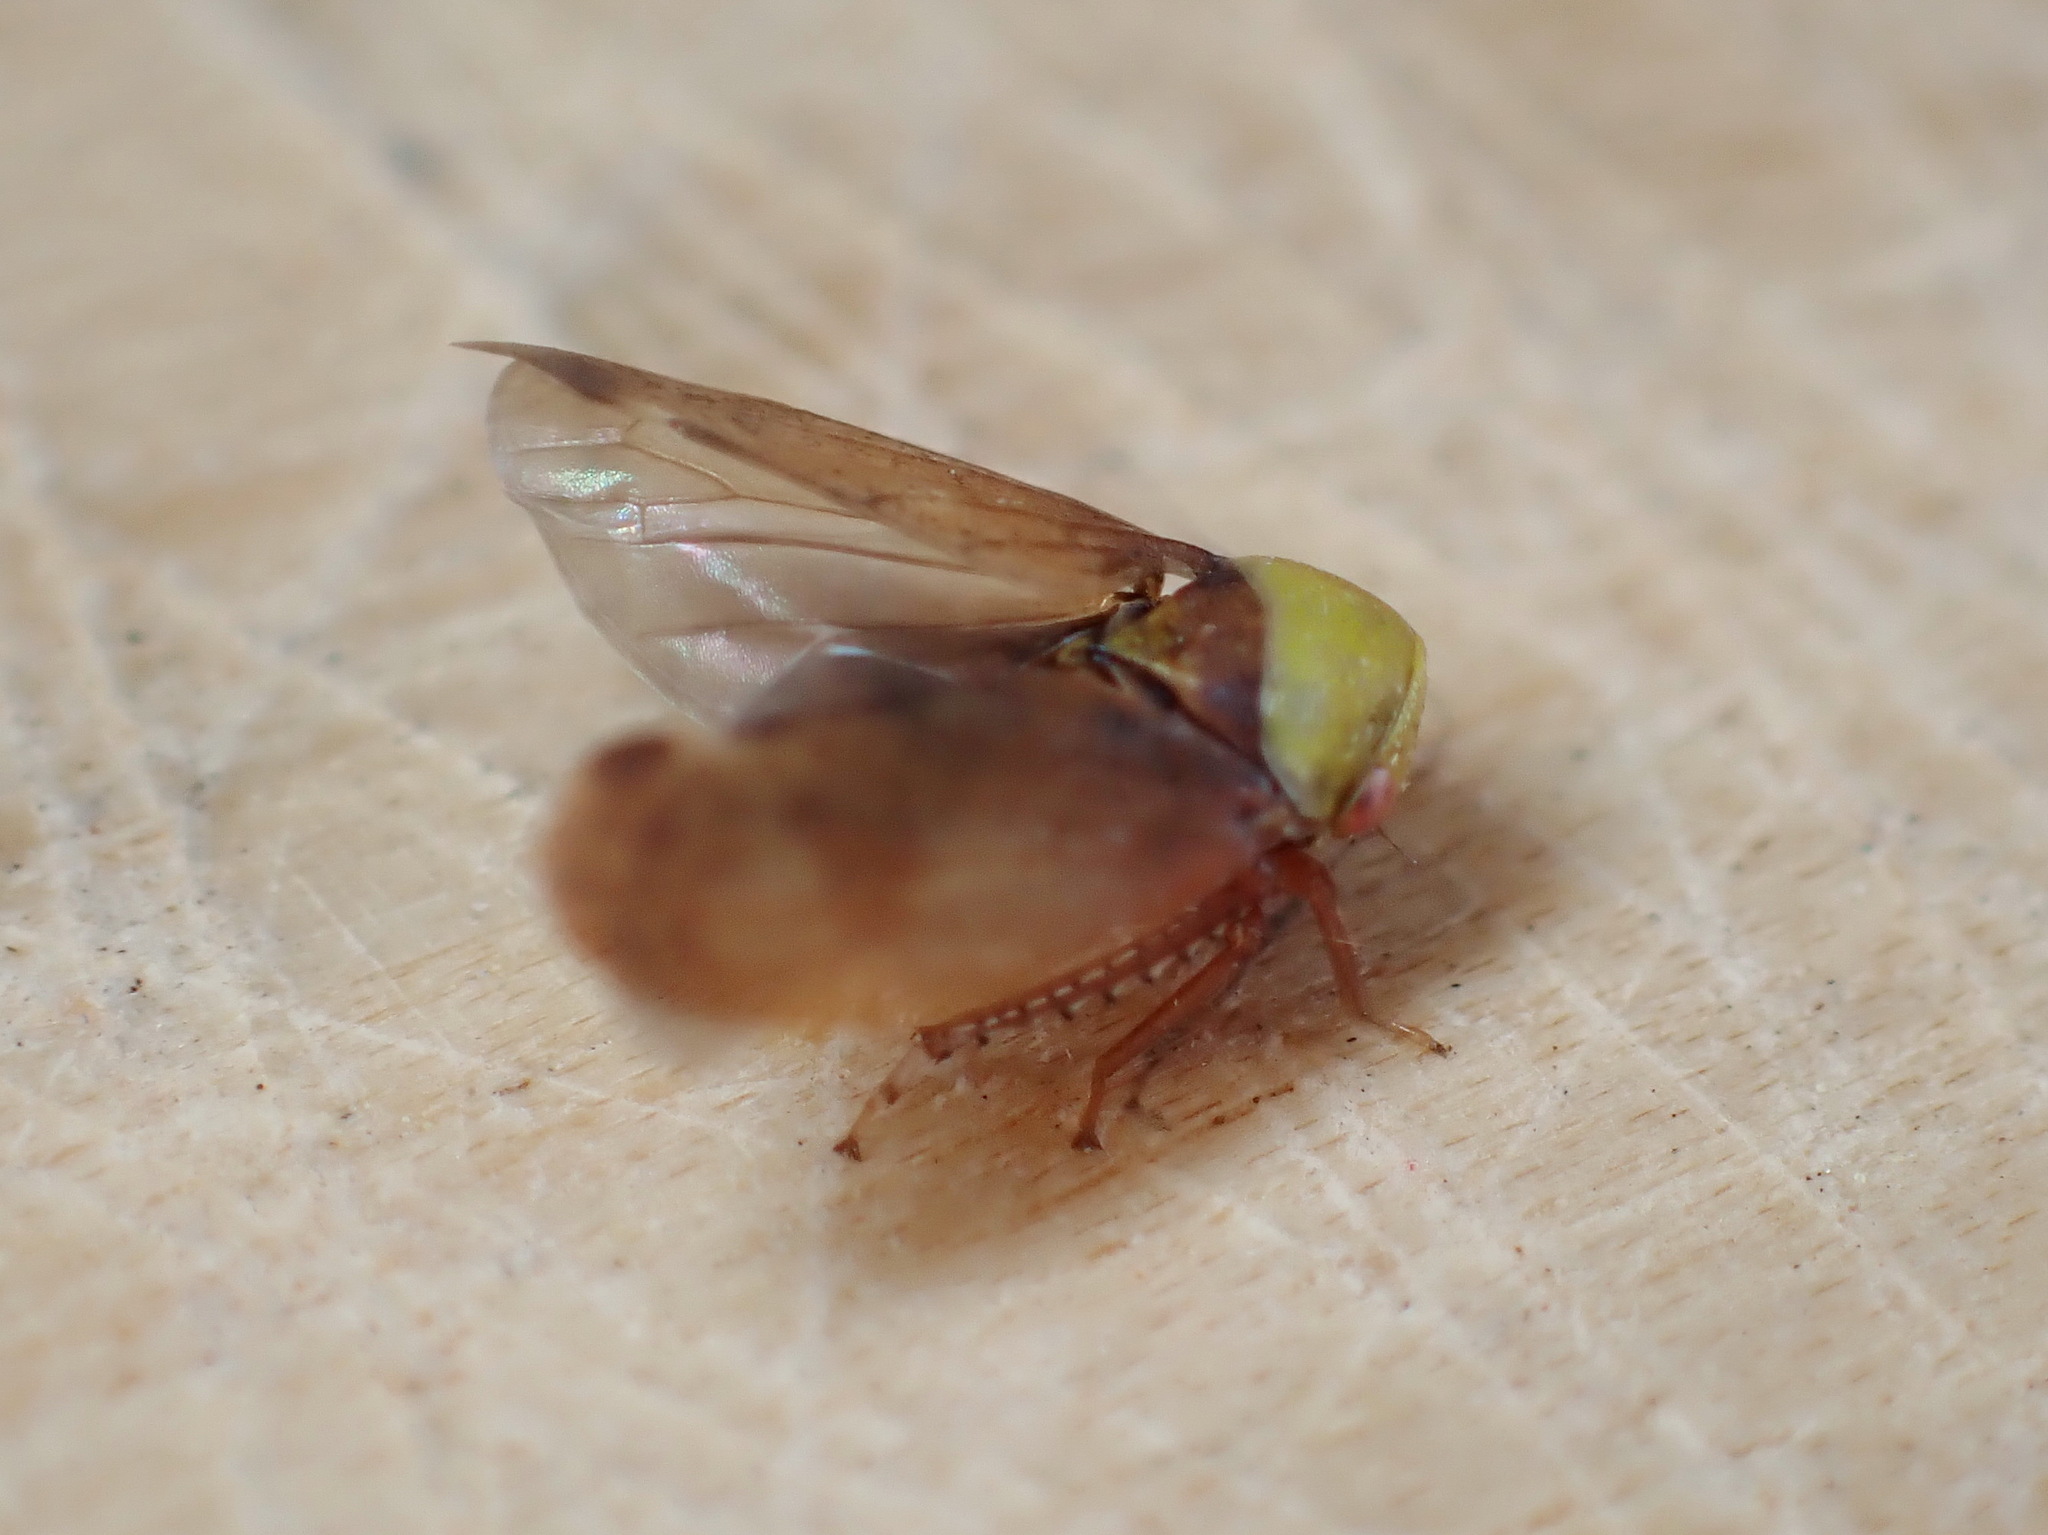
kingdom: Animalia
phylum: Arthropoda
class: Insecta
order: Hemiptera
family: Cicadellidae
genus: Pediopsis
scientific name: Pediopsis tiliae
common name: Leafhopper
